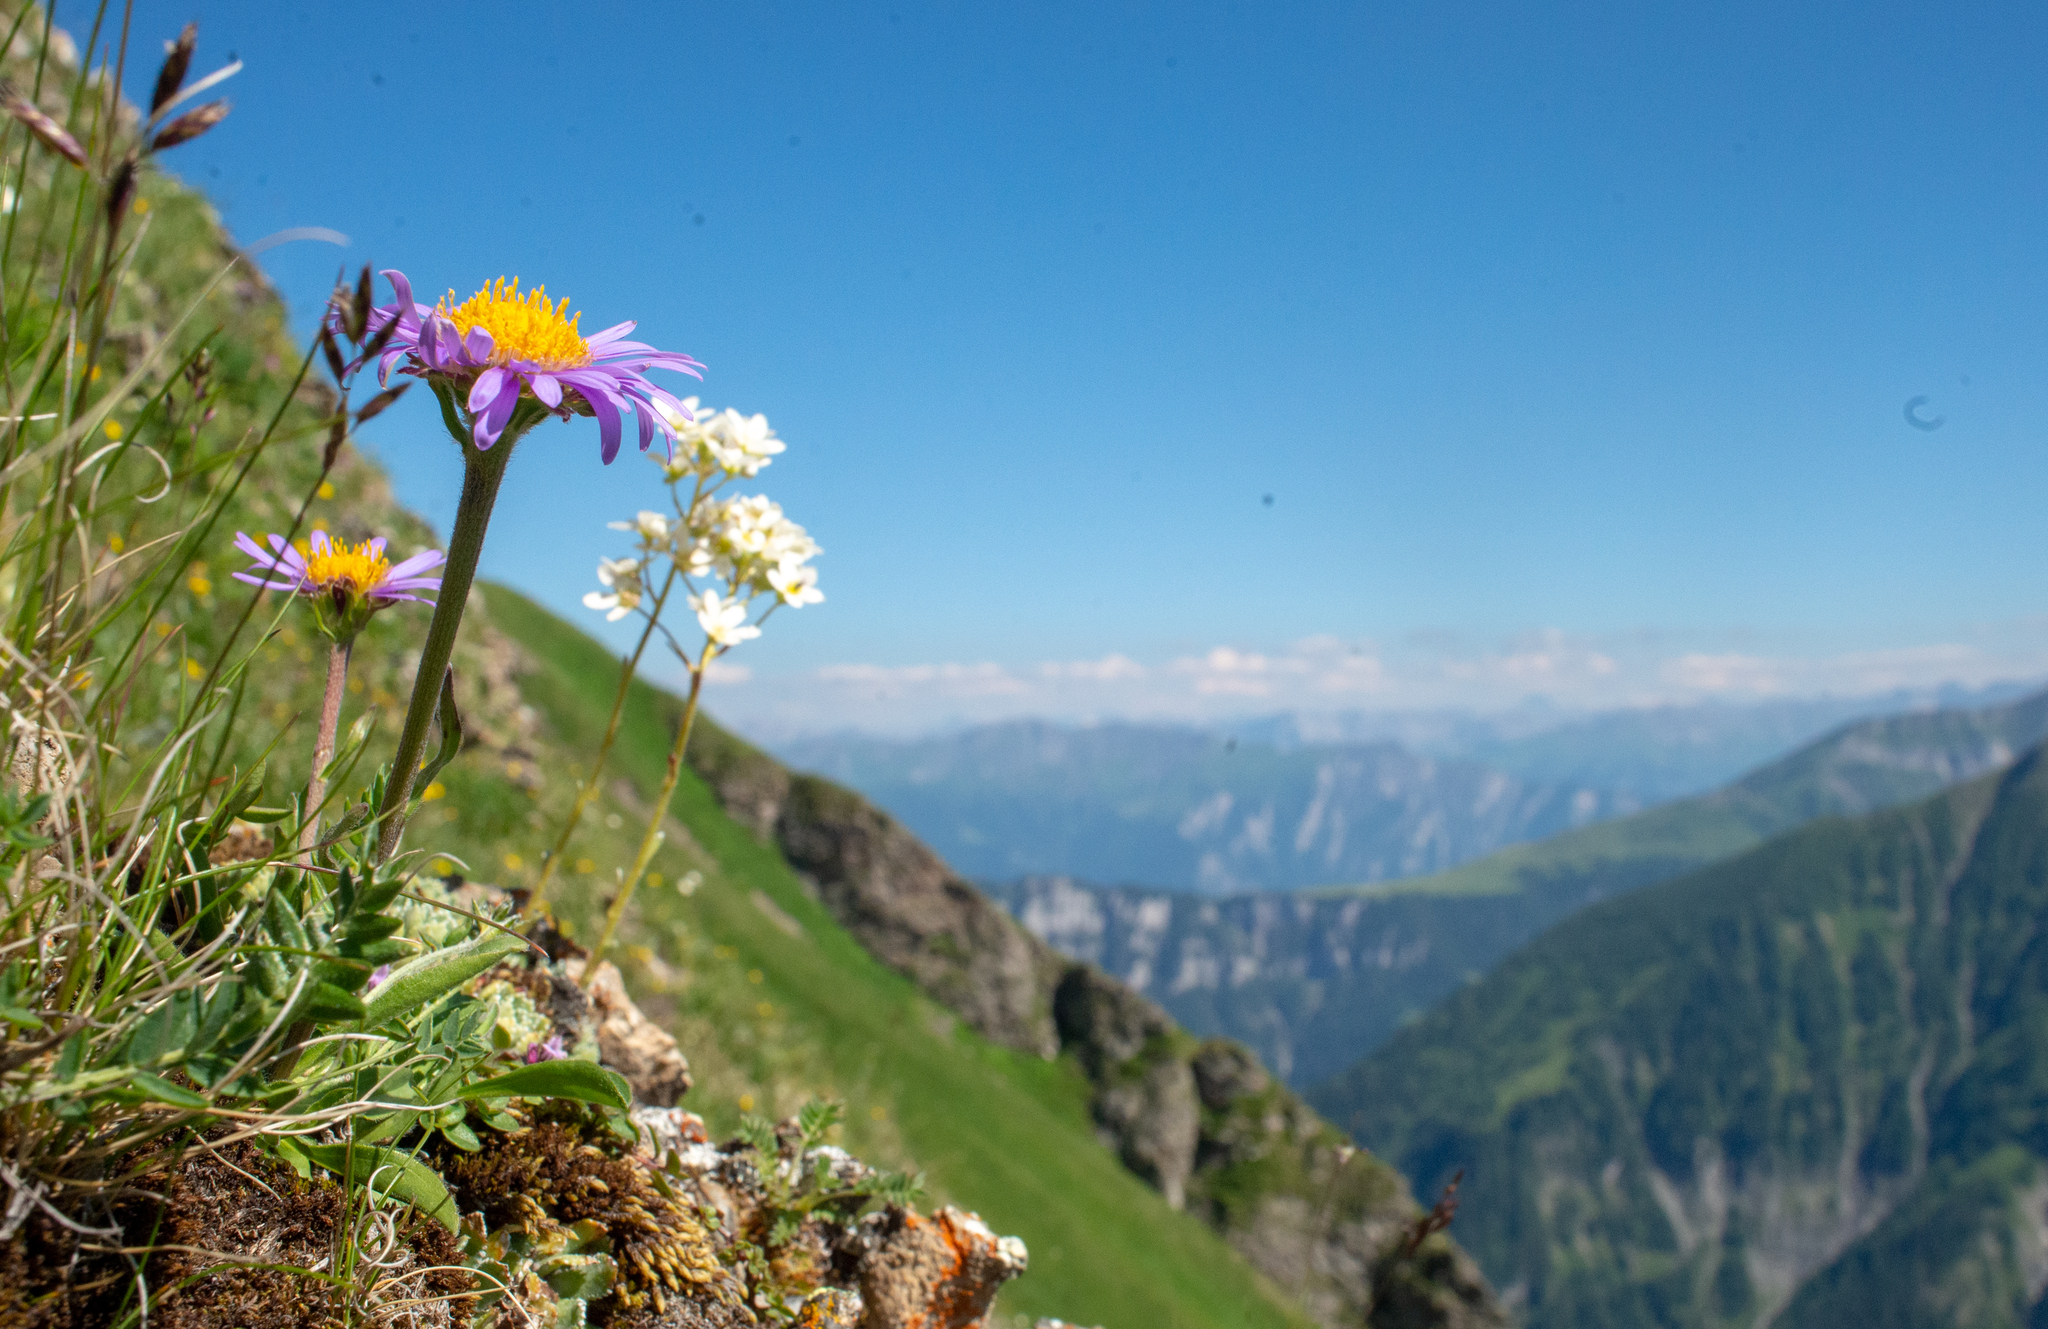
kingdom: Plantae
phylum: Tracheophyta
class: Magnoliopsida
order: Asterales
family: Asteraceae
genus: Aster
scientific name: Aster alpinus
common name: Alpine aster
